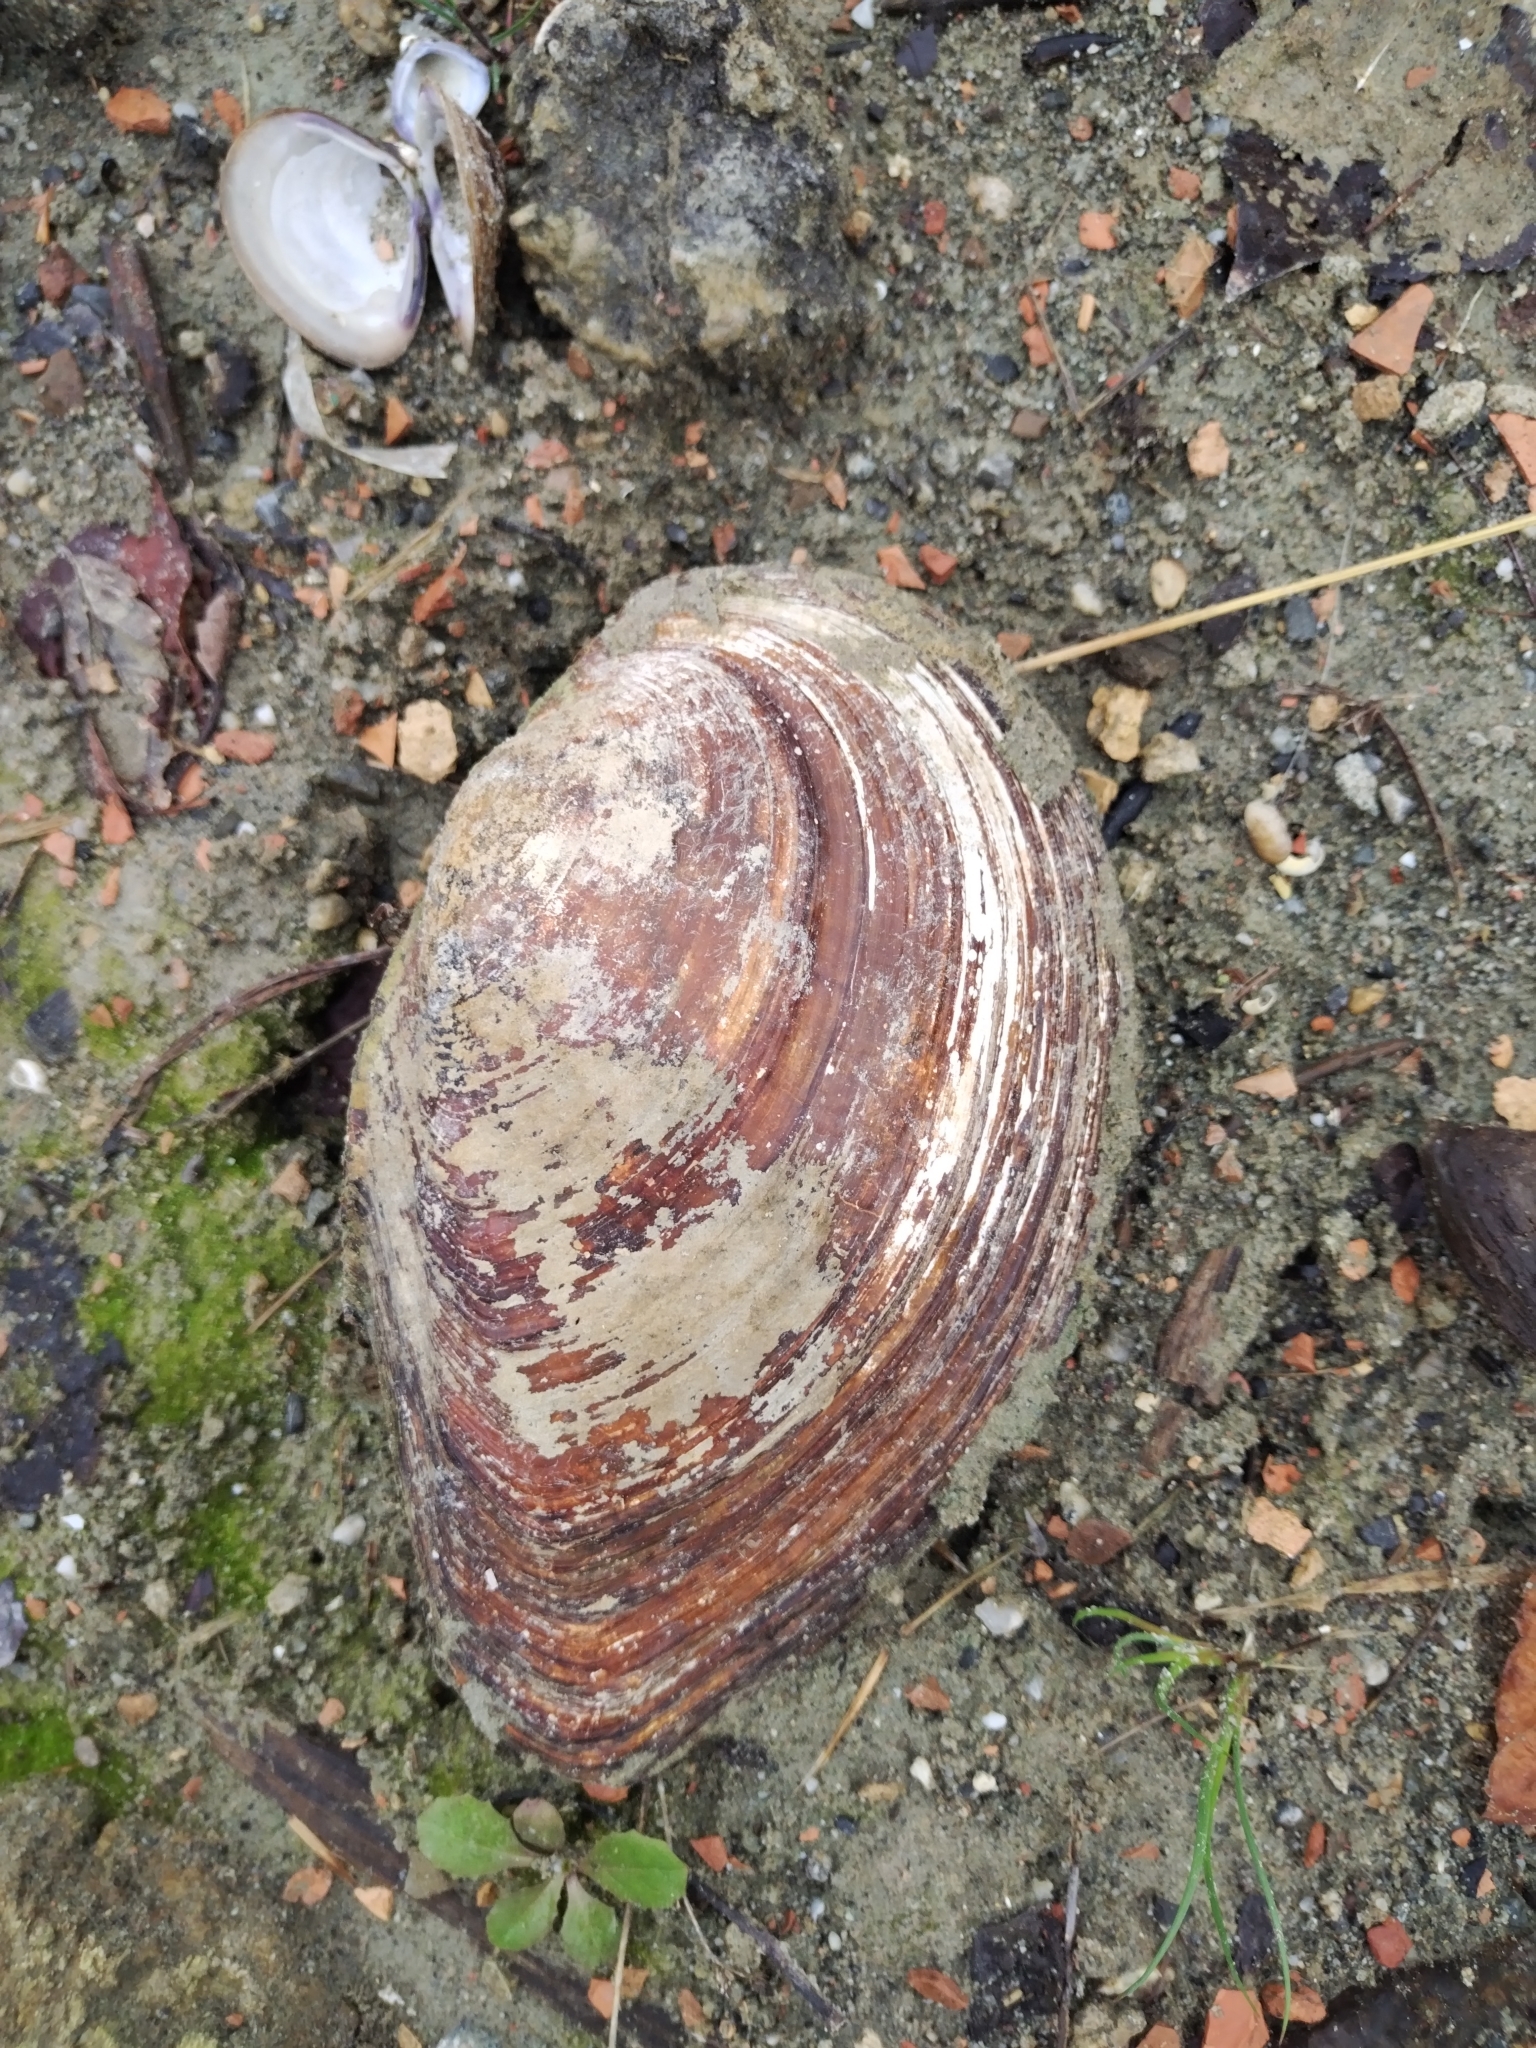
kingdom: Animalia
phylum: Mollusca
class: Bivalvia
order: Unionida
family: Unionidae
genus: Sinanodonta
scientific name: Sinanodonta woodiana
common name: Chinese pond mussel
